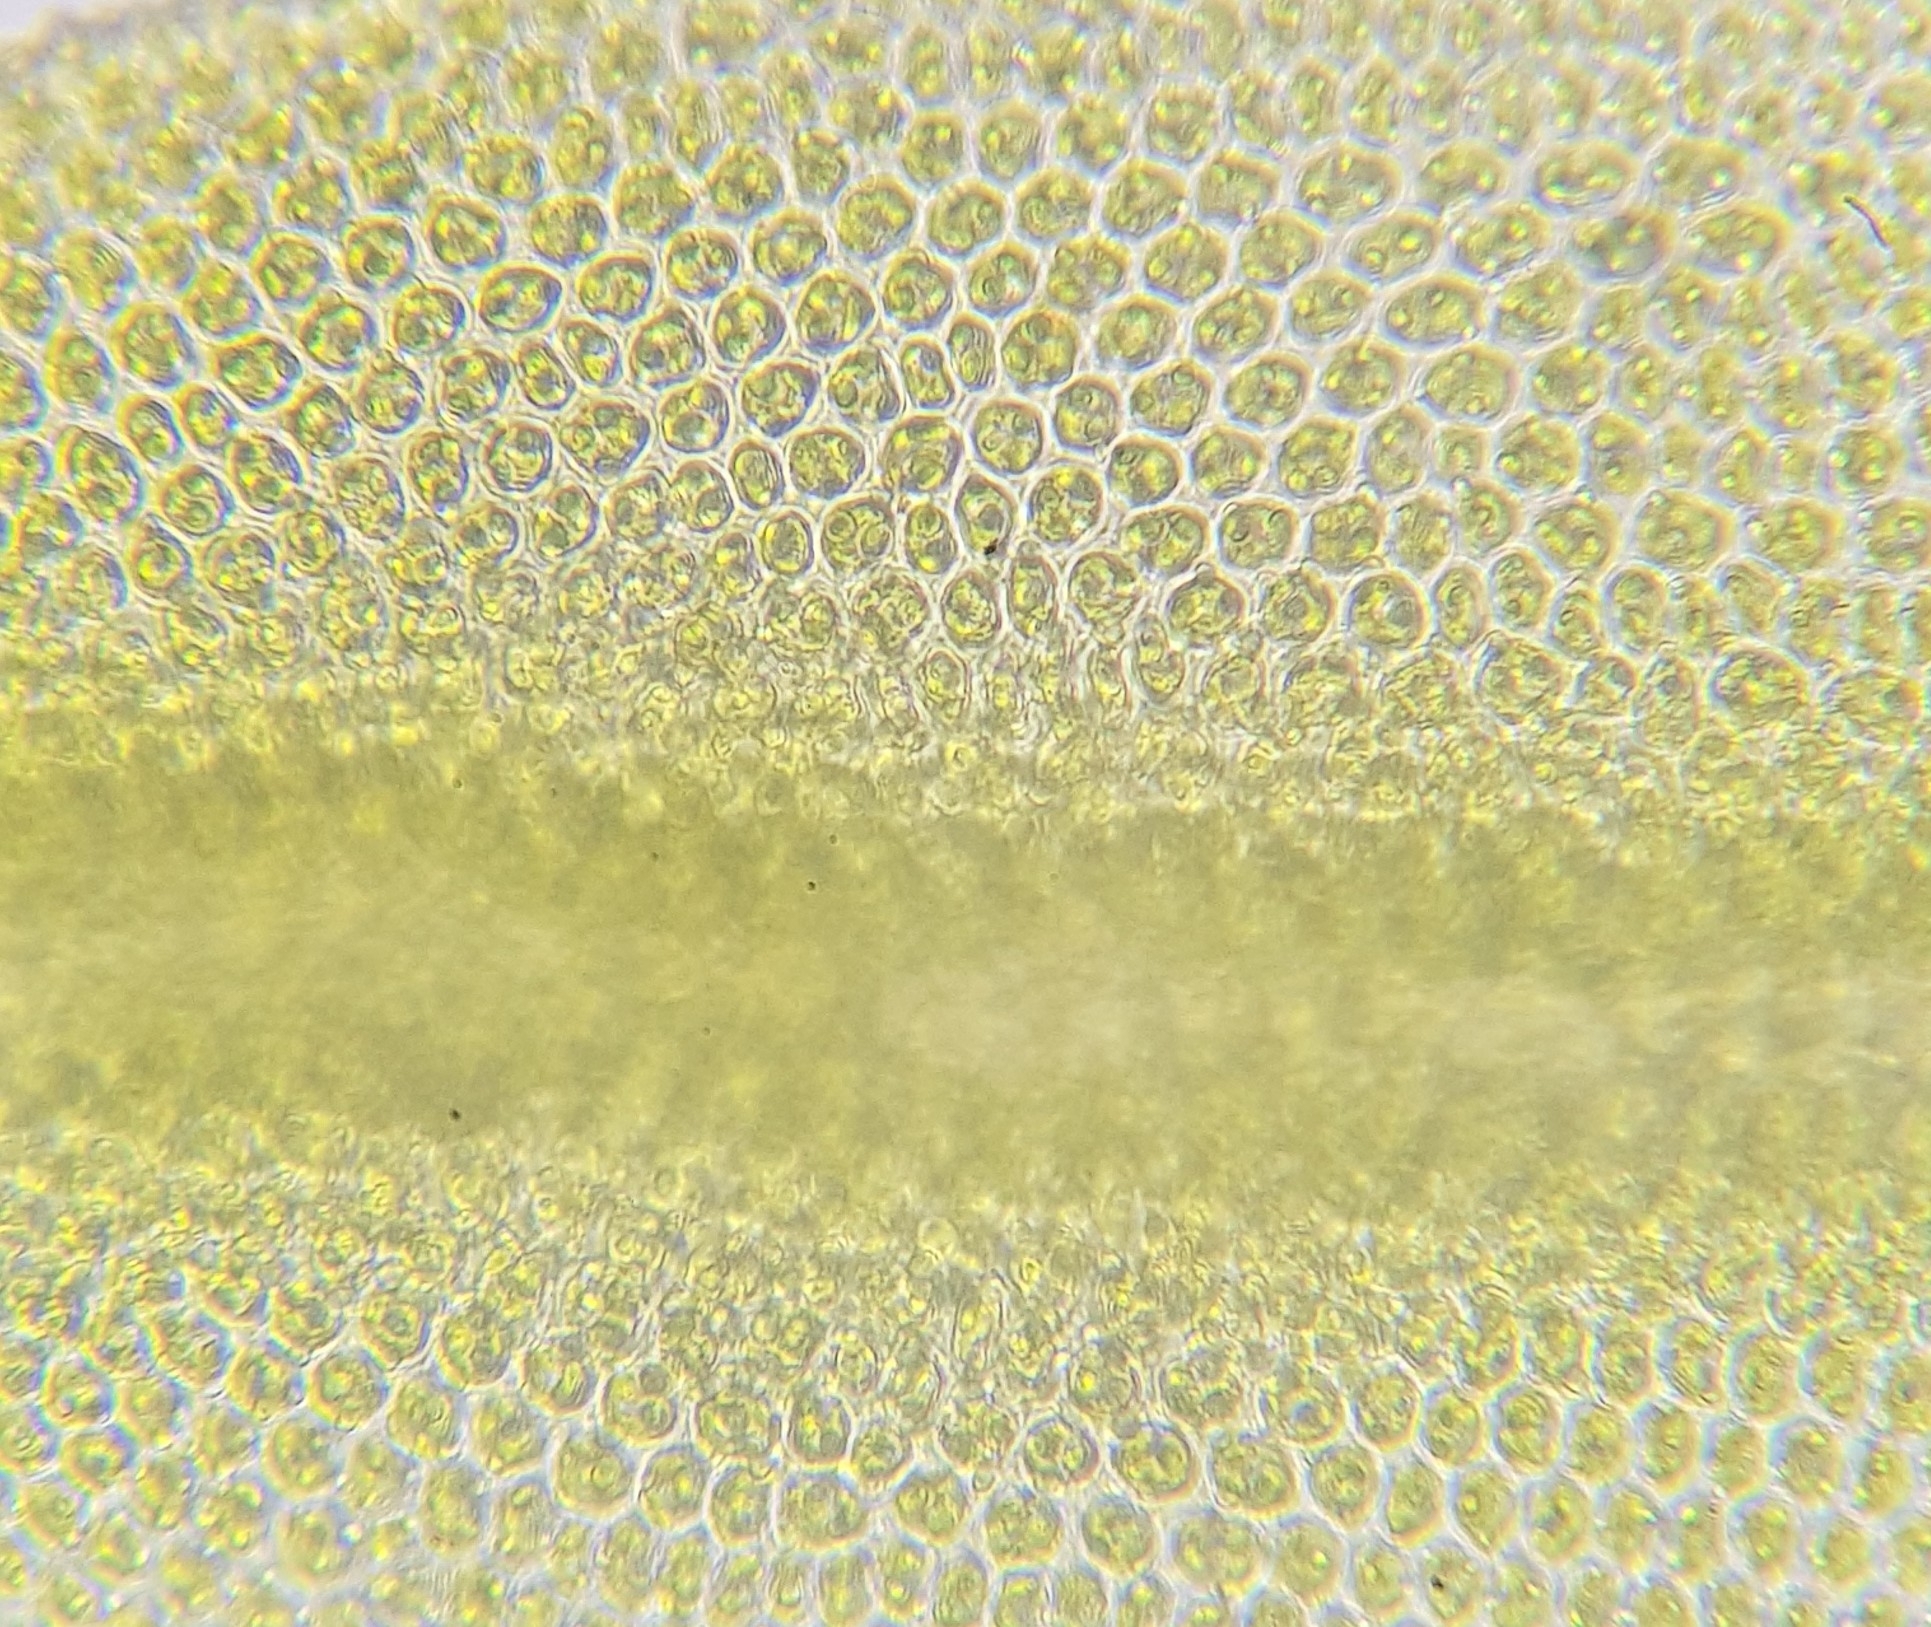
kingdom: Plantae
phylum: Bryophyta
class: Bryopsida
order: Orthotrichales
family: Orthotrichaceae
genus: Zygodon
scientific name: Zygodon conoideus
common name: Lesser yoke-moss
